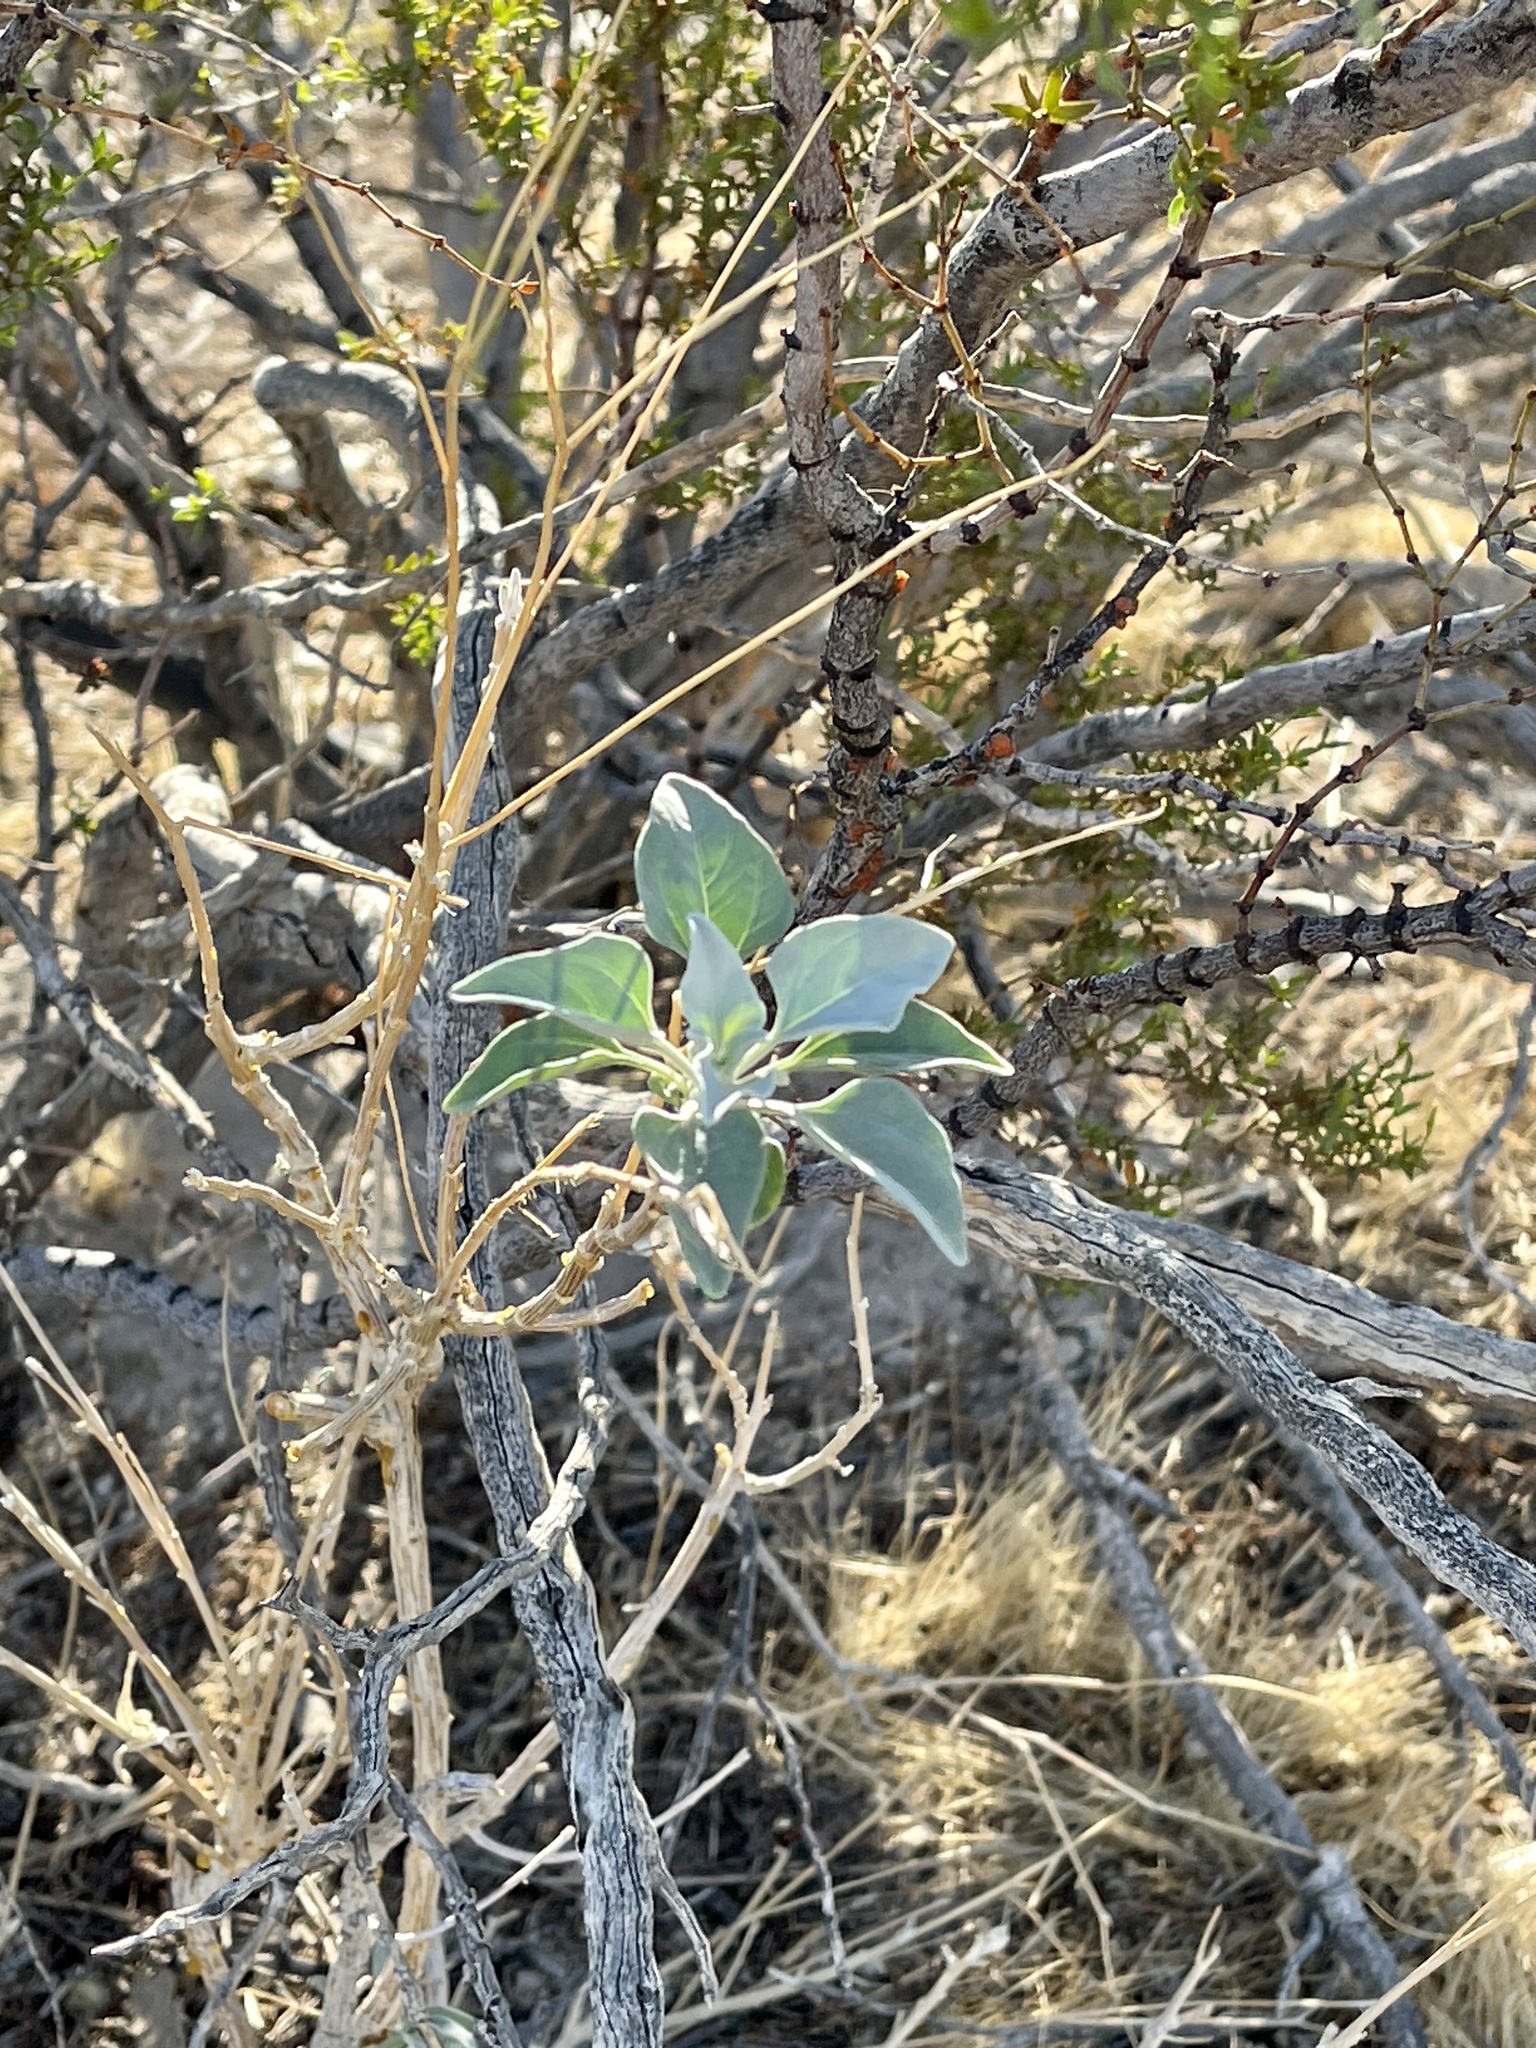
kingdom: Plantae
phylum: Tracheophyta
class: Magnoliopsida
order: Asterales
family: Asteraceae
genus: Encelia
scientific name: Encelia farinosa
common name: Brittlebush
